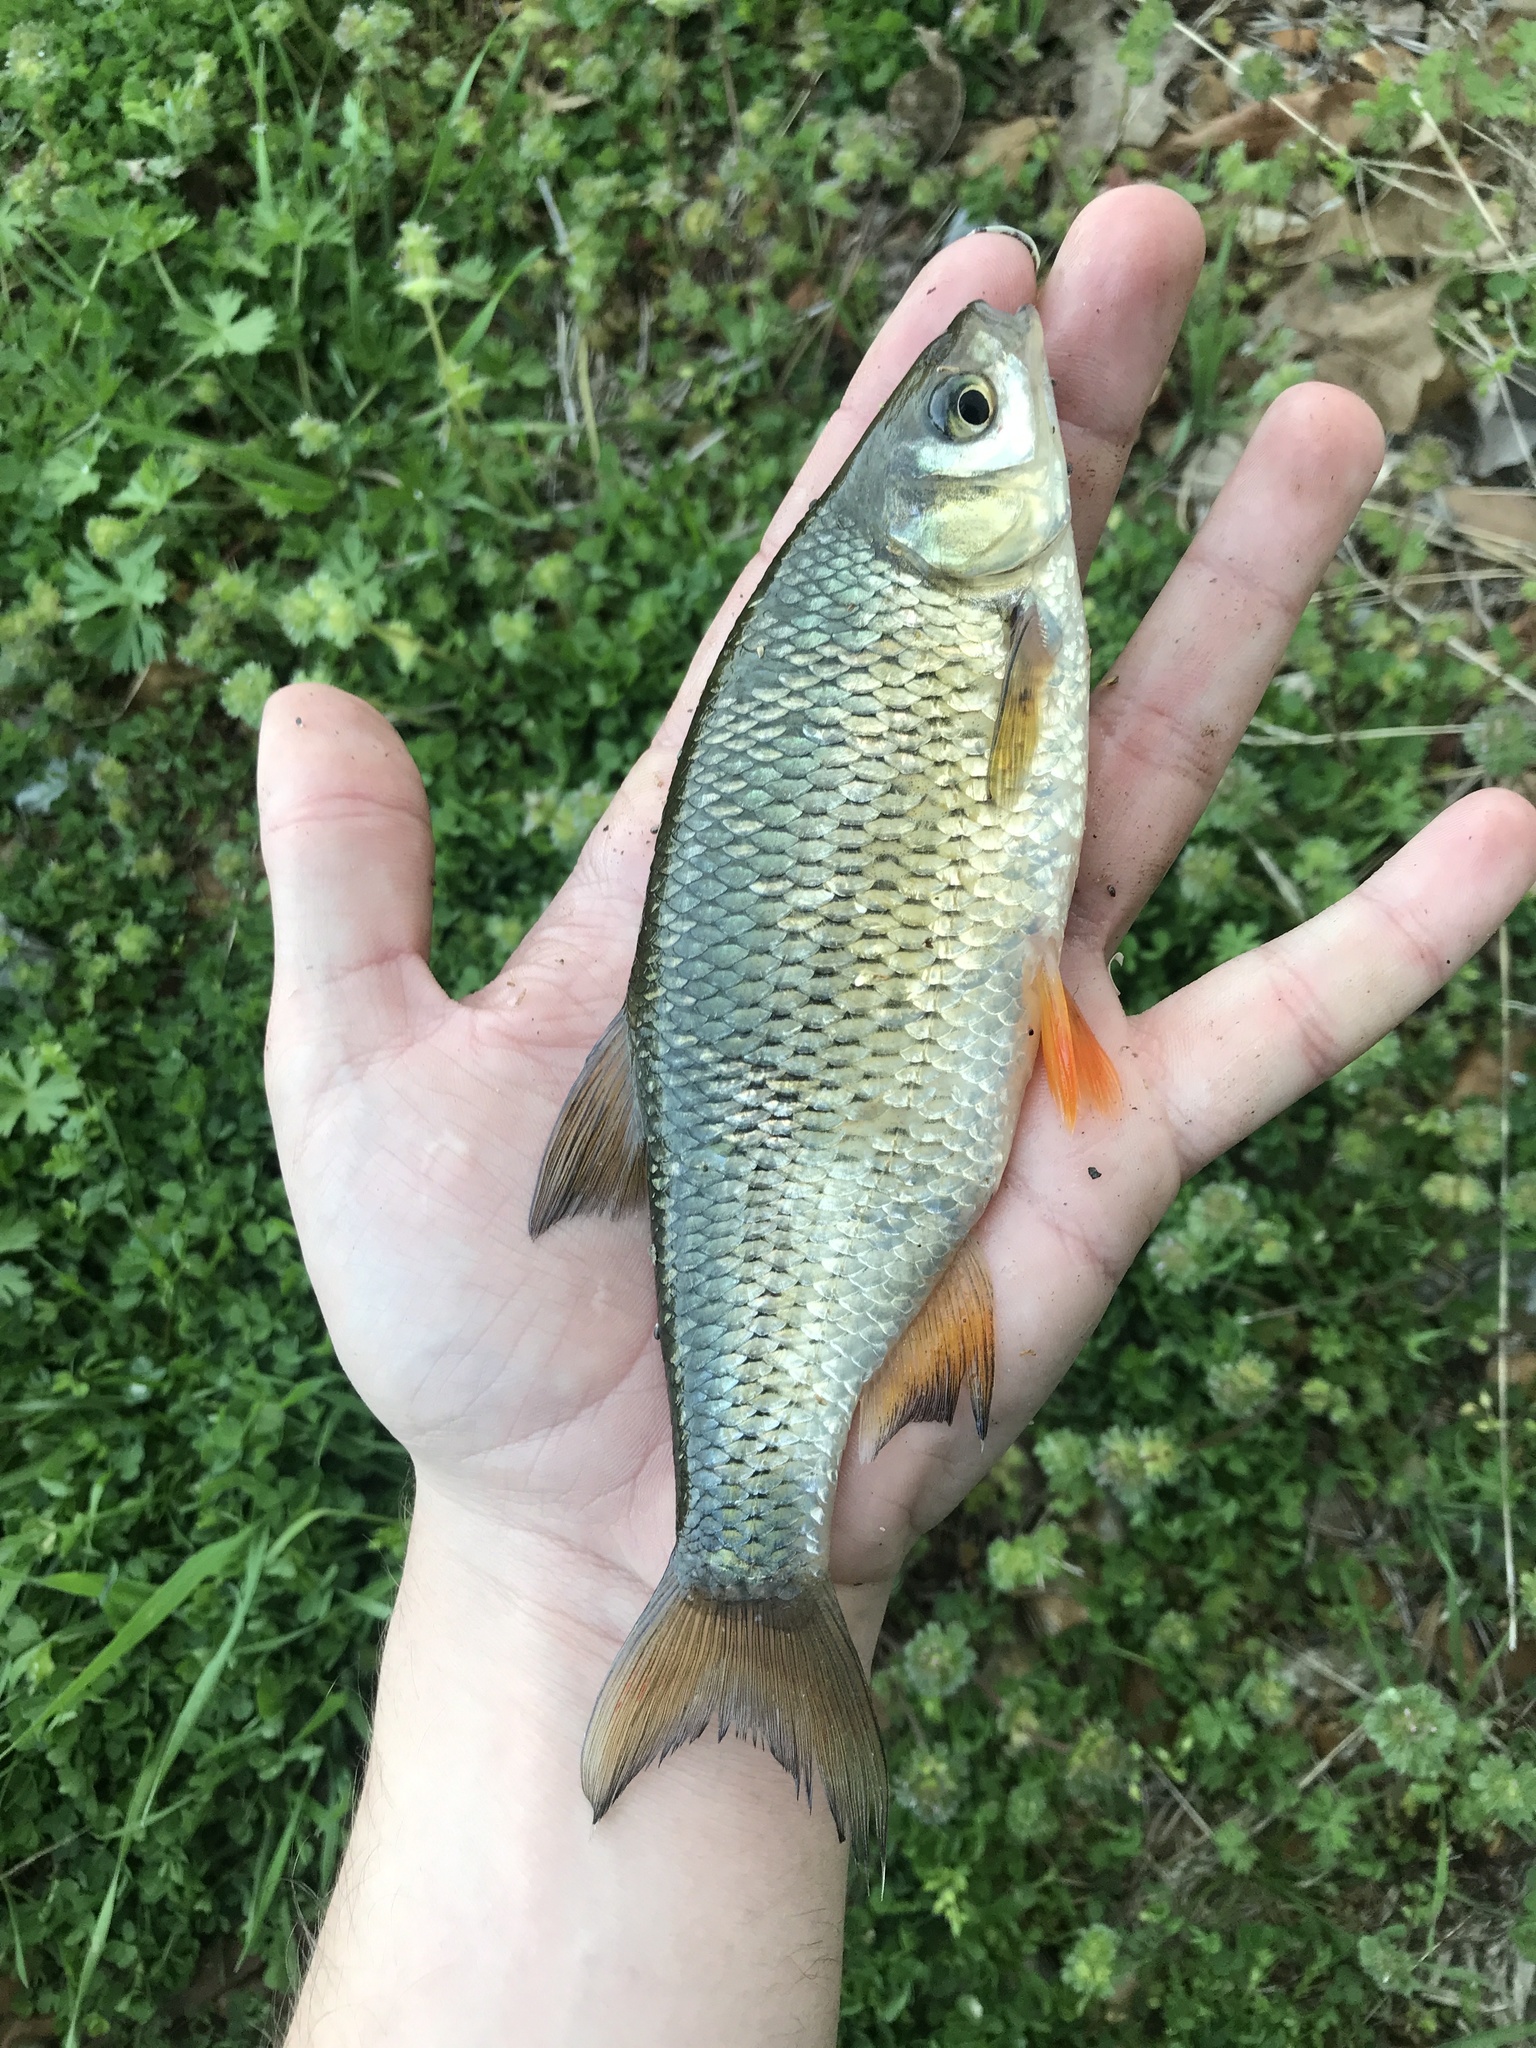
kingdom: Animalia
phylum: Chordata
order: Cypriniformes
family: Cyprinidae
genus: Notemigonus
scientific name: Notemigonus crysoleucas
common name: Golden shiner
